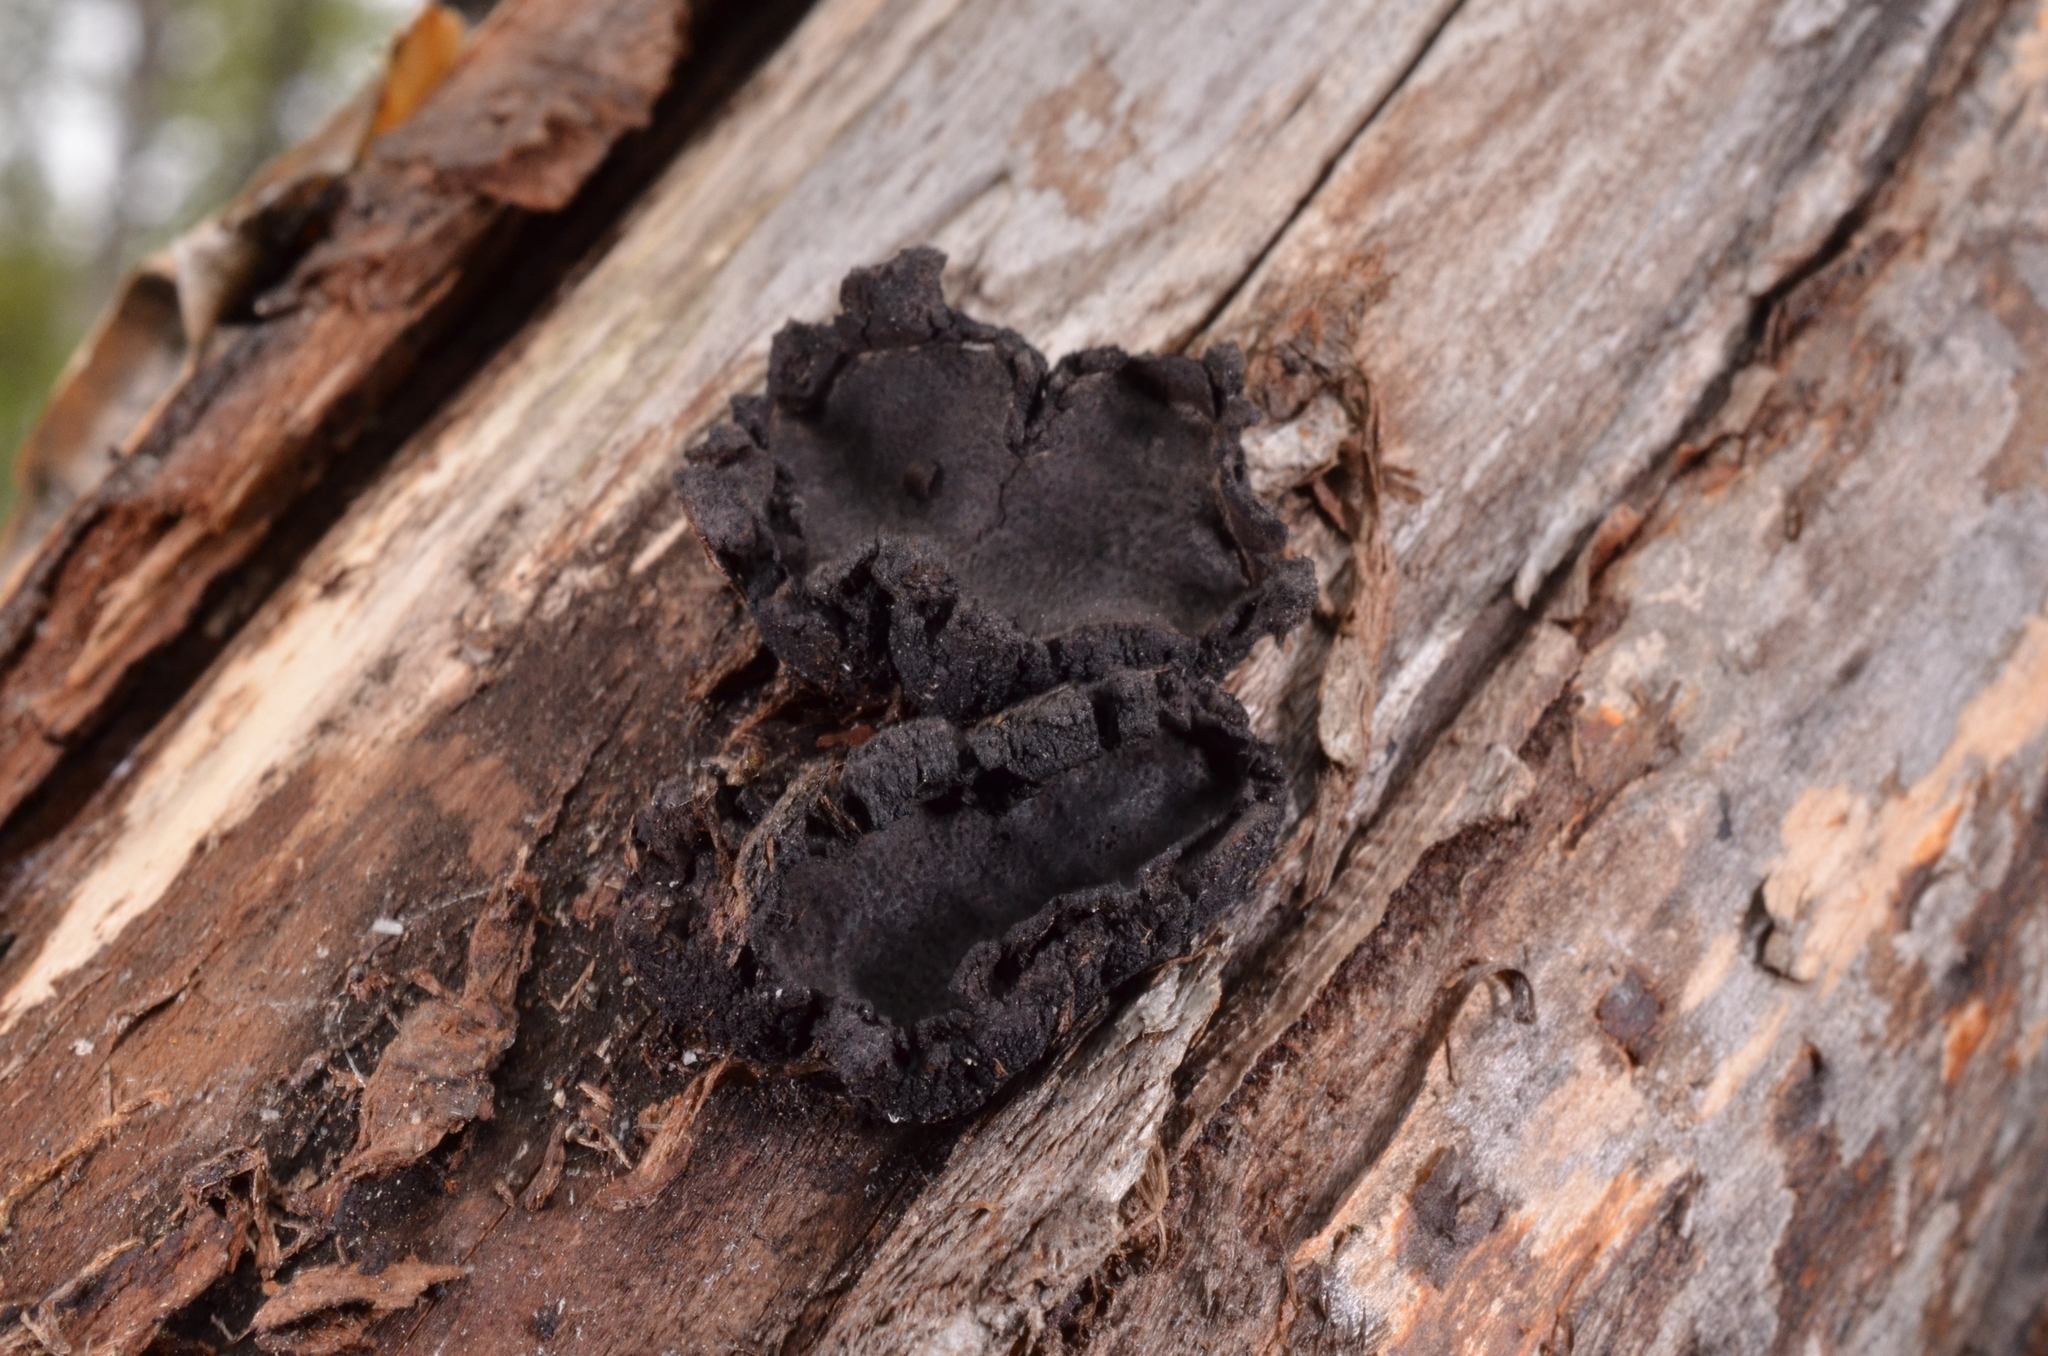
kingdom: Fungi
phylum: Ascomycota
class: Sordariomycetes
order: Xylariales
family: Graphostromataceae
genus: Biscogniauxia
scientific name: Biscogniauxia repanda
